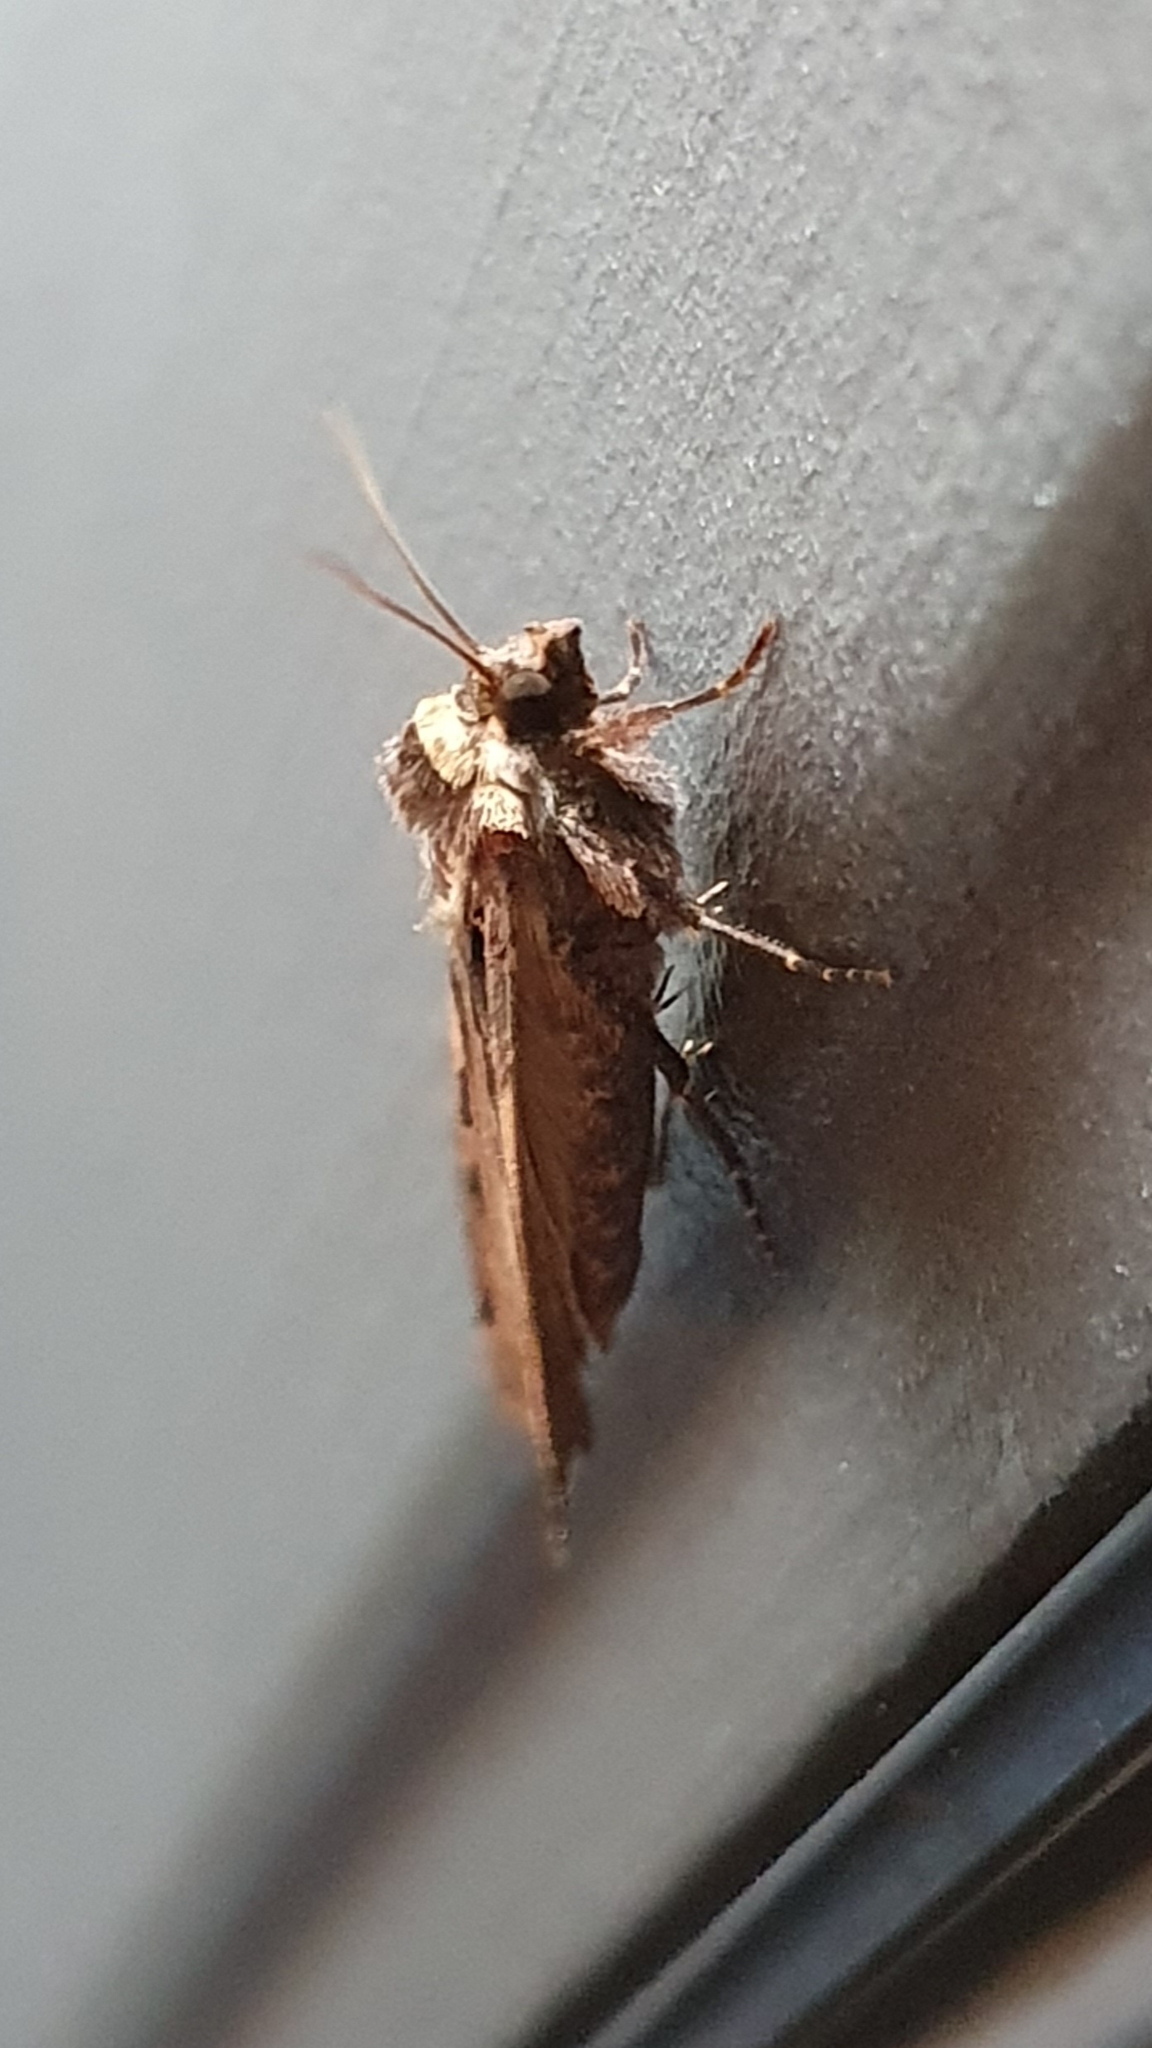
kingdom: Animalia
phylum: Arthropoda
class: Insecta
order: Lepidoptera
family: Noctuidae
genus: Xestia
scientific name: Xestia c-nigrum
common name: Setaceous hebrew character
